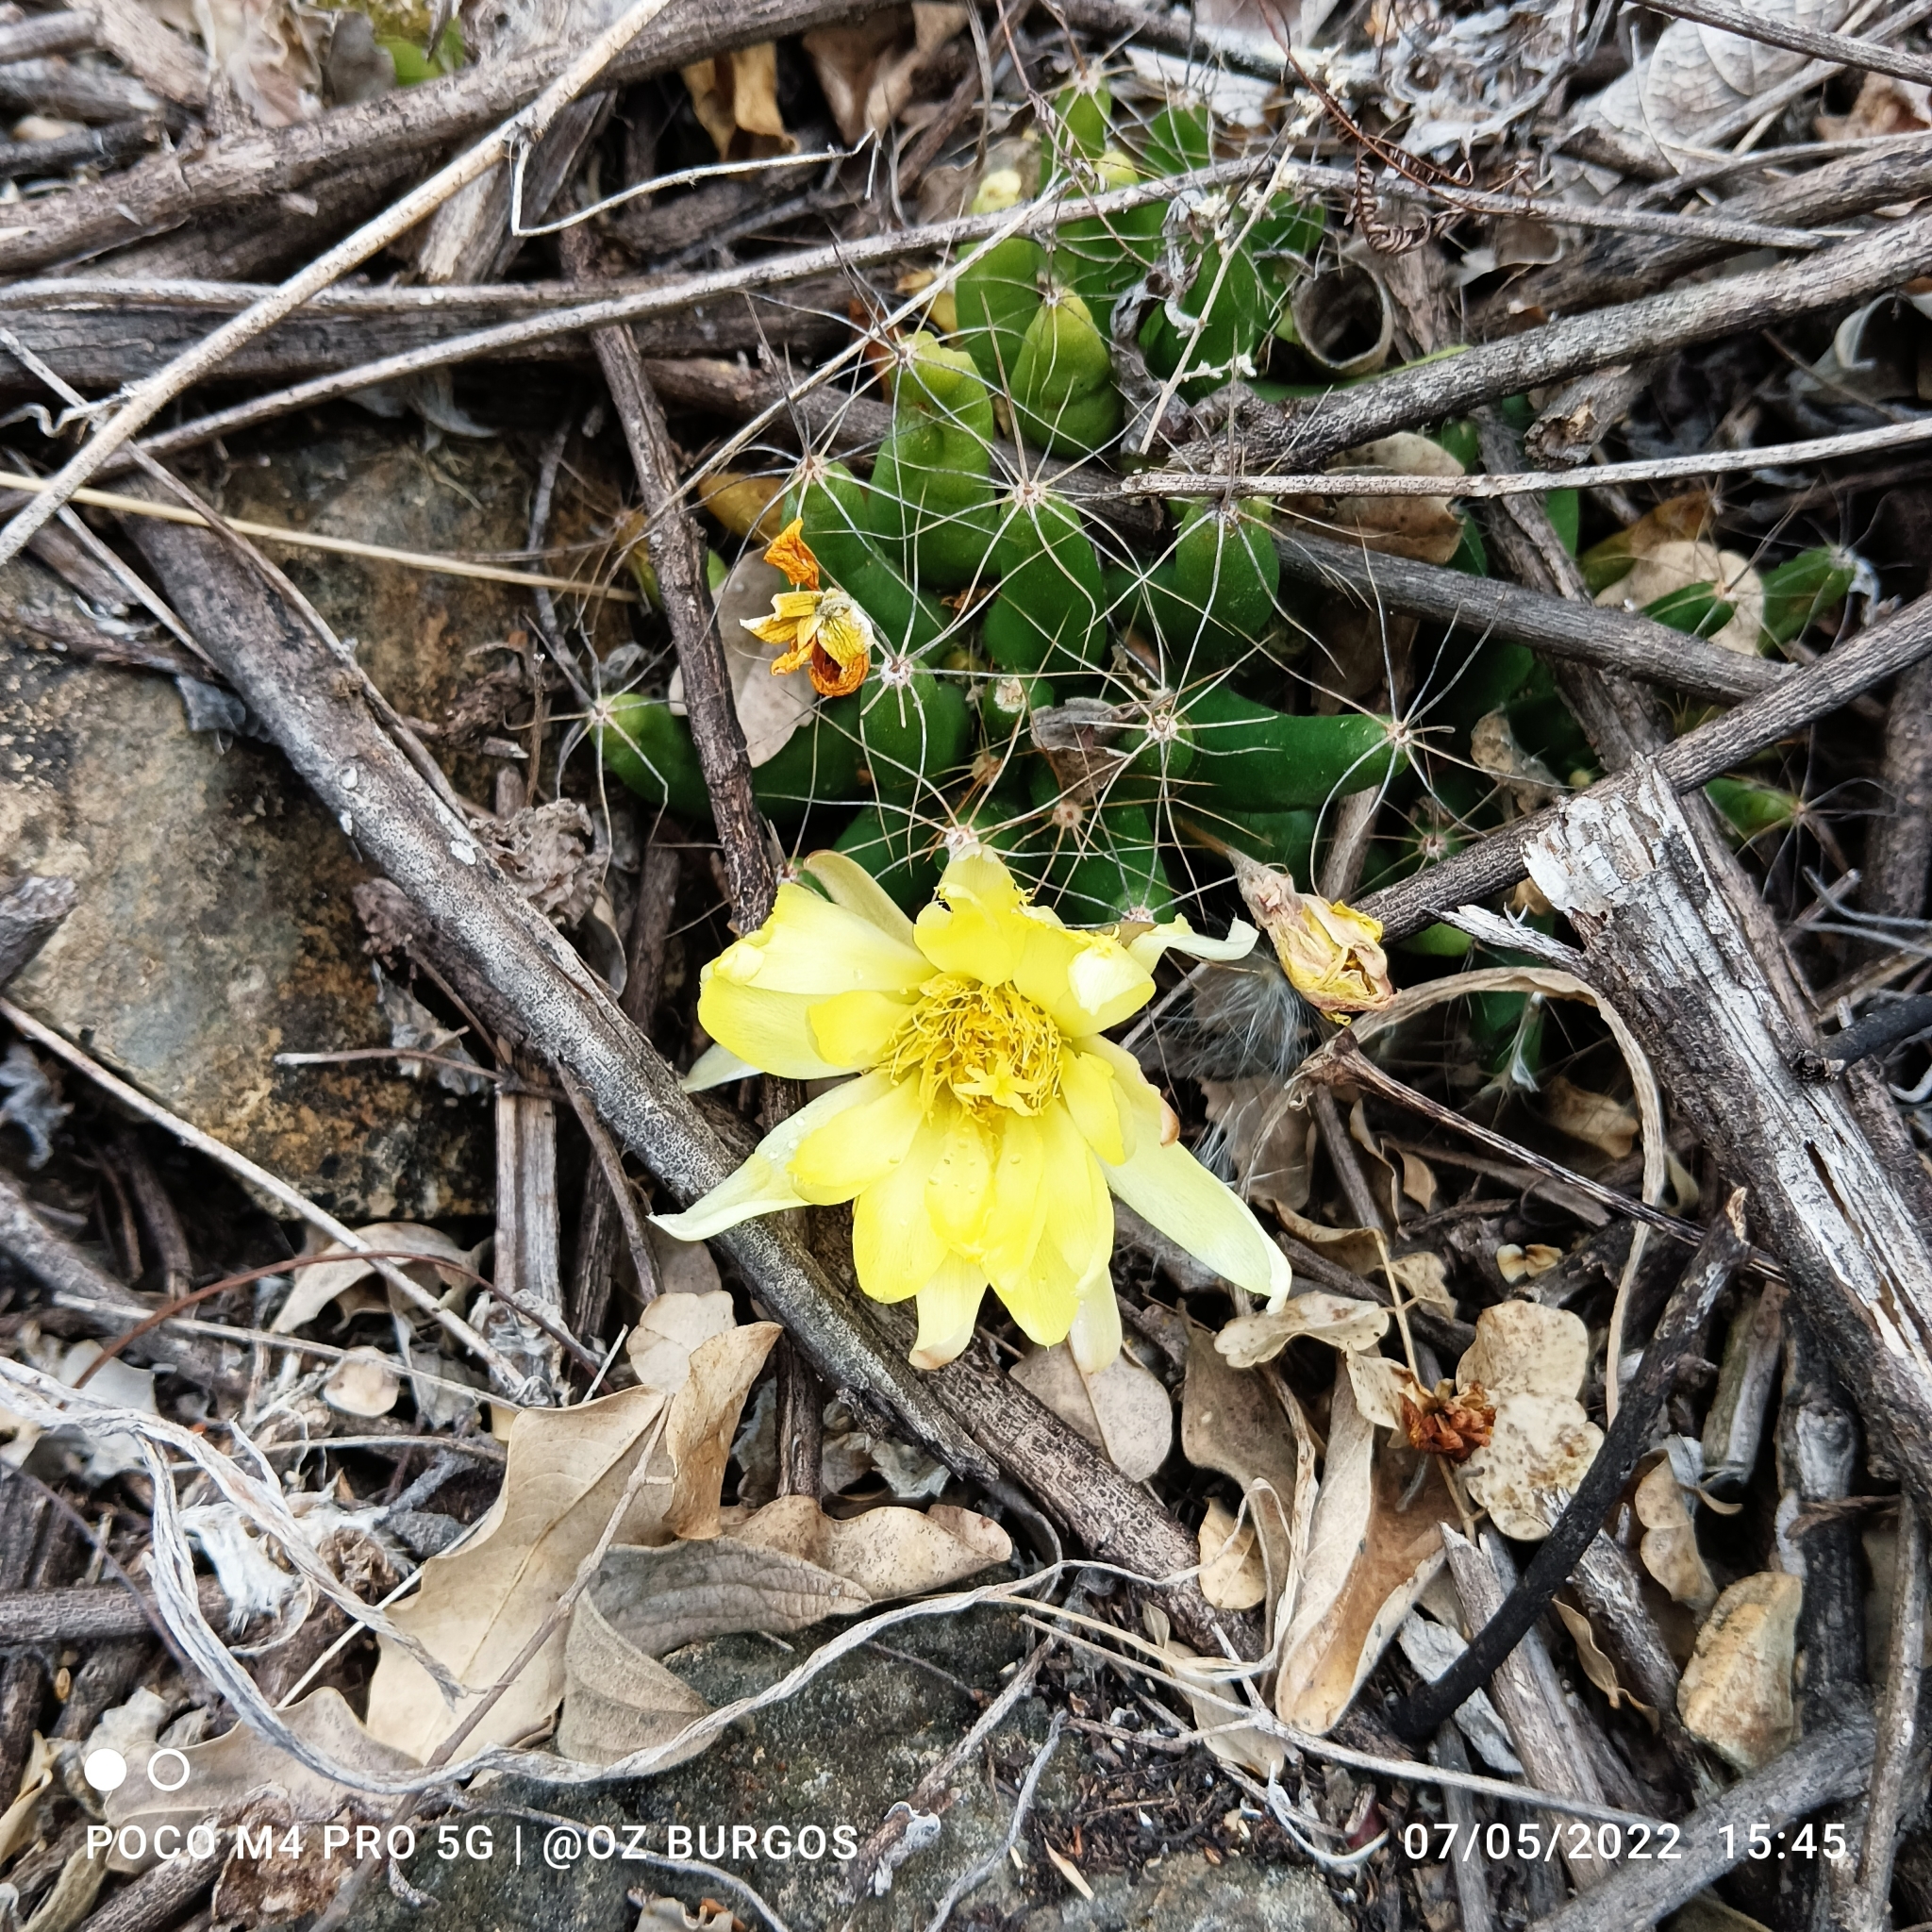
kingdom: Plantae
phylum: Tracheophyta
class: Magnoliopsida
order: Caryophyllales
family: Cactaceae
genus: Mammillaria
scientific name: Mammillaria longimamma
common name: Pineapple cactus
